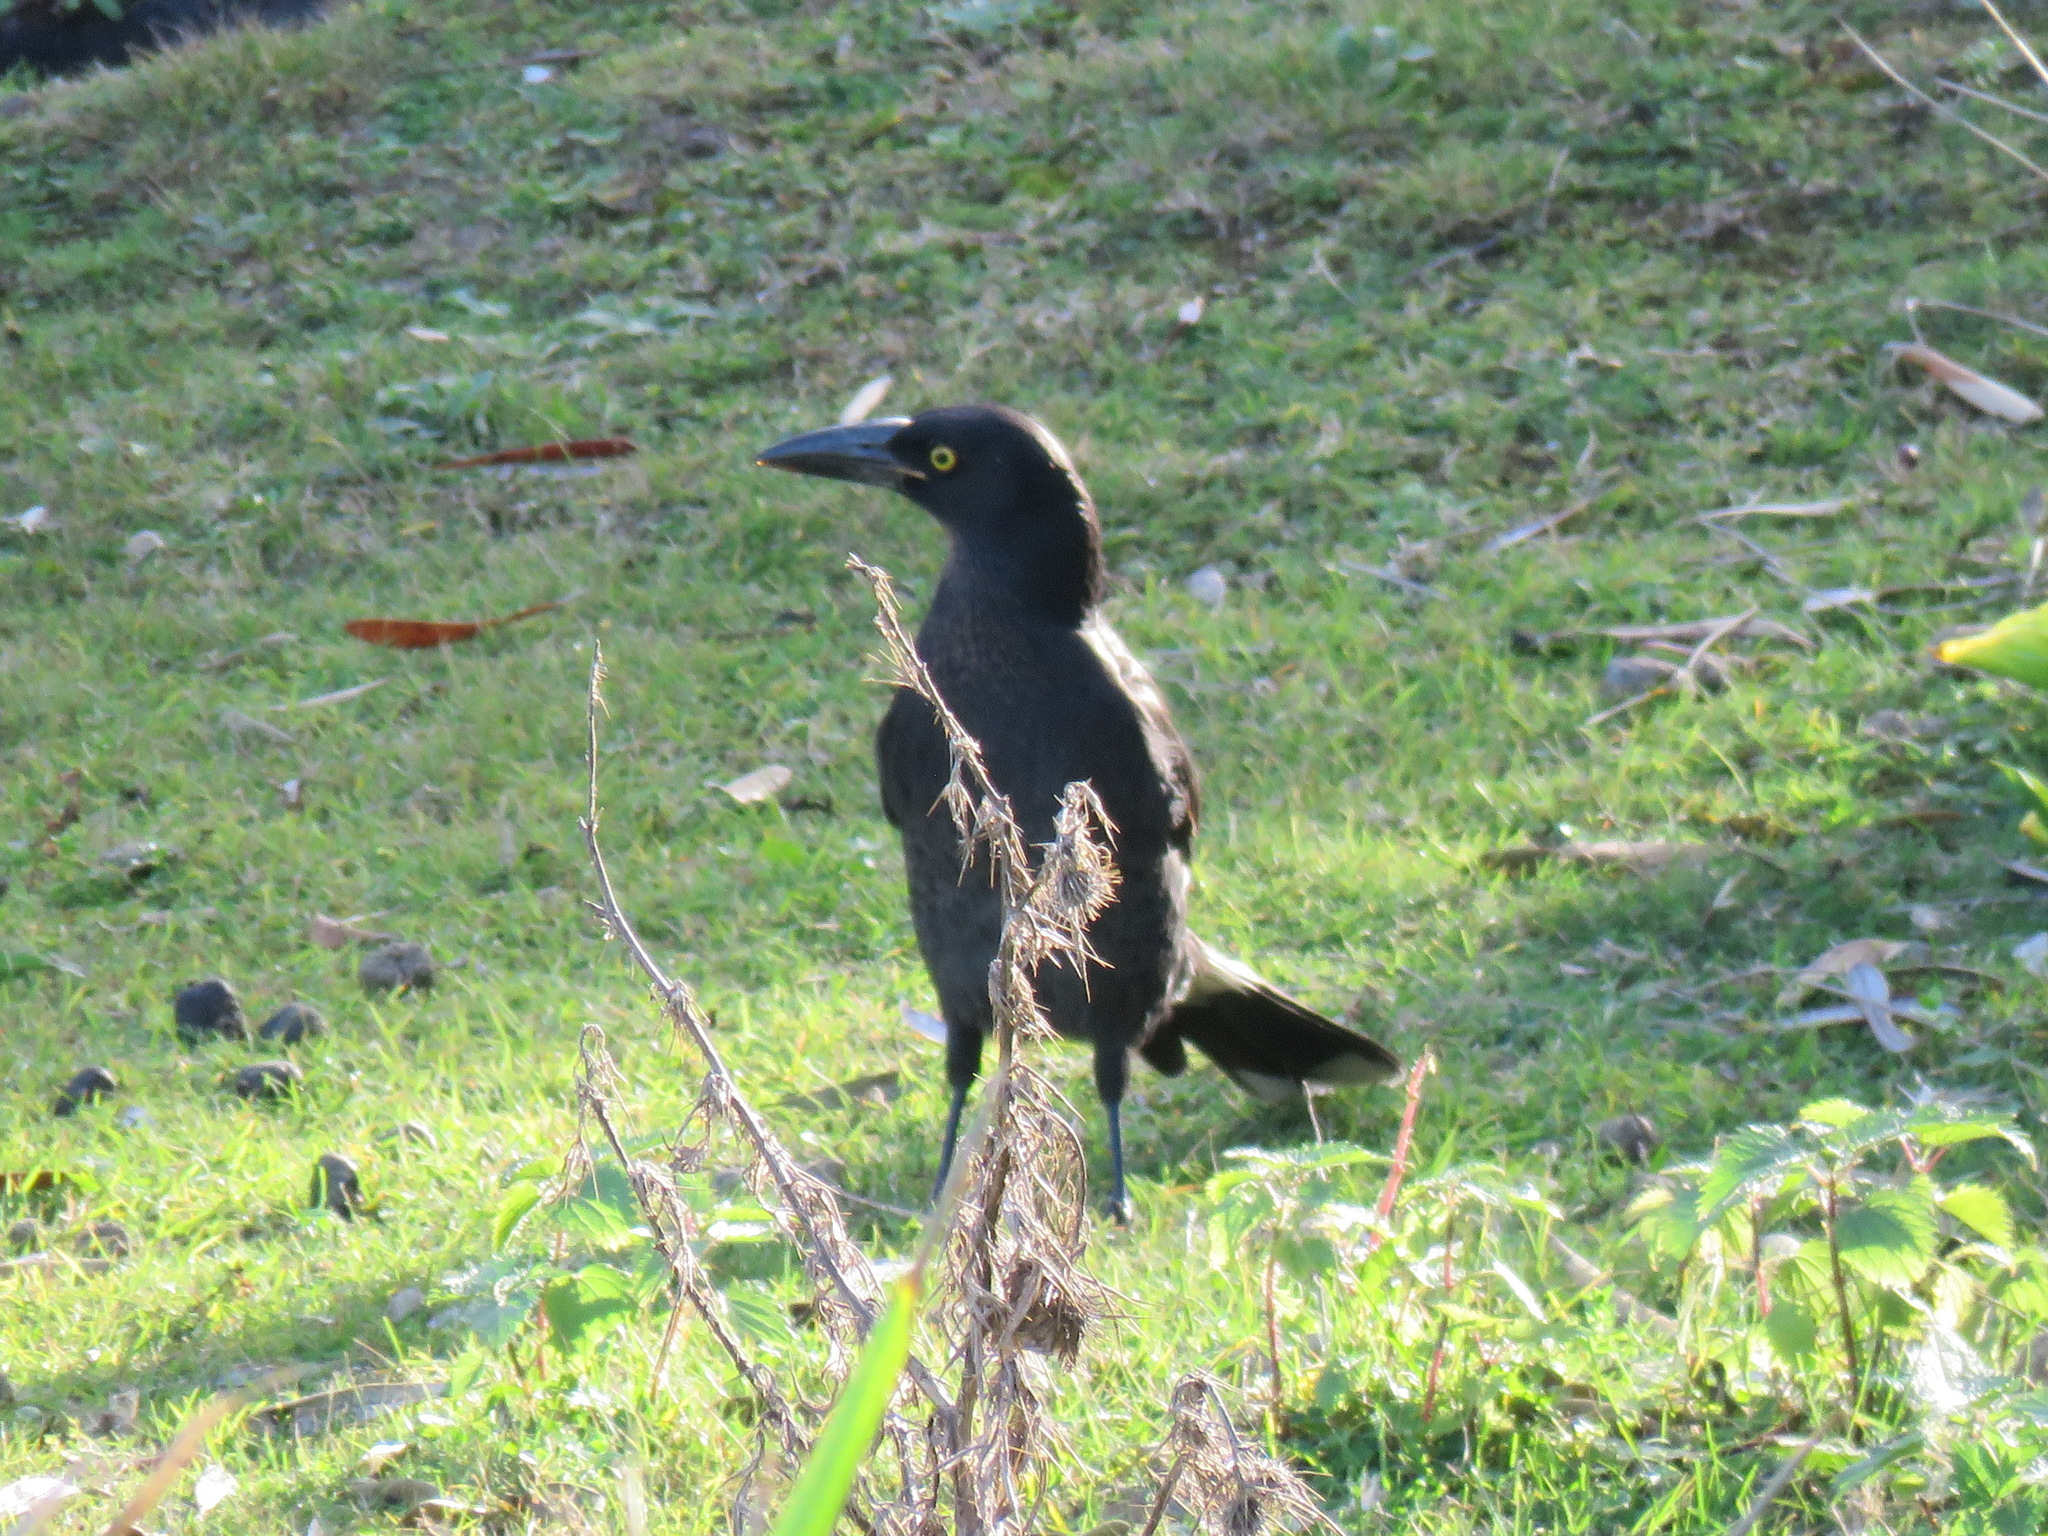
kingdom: Animalia
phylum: Chordata
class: Aves
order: Passeriformes
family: Cracticidae
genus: Strepera
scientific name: Strepera graculina
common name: Pied currawong
